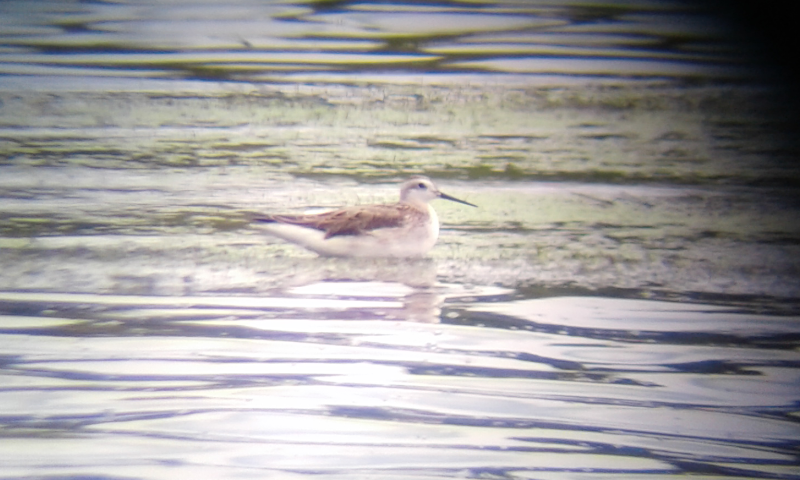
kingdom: Animalia
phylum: Chordata
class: Aves
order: Charadriiformes
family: Scolopacidae
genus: Phalaropus
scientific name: Phalaropus tricolor
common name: Wilson's phalarope
